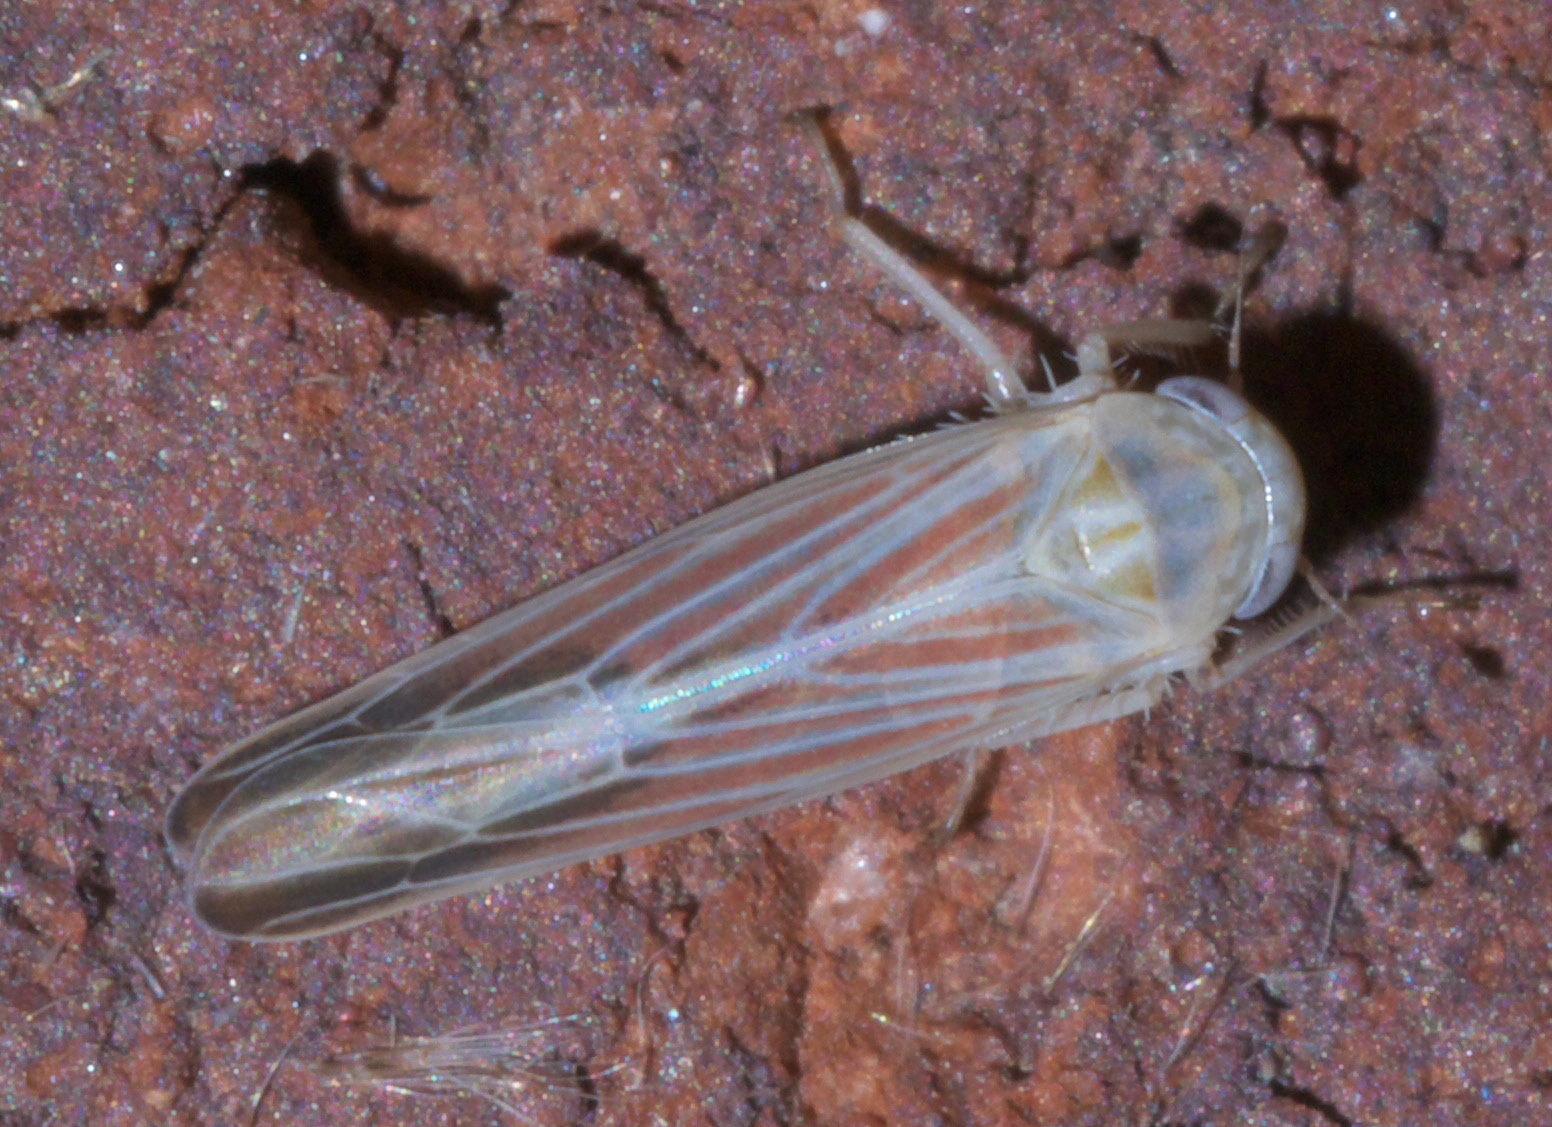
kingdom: Animalia
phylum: Arthropoda
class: Insecta
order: Hemiptera
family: Cicadellidae
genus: Balclutha
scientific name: Balclutha rubrostriata
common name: Red-streaked leafhopper
